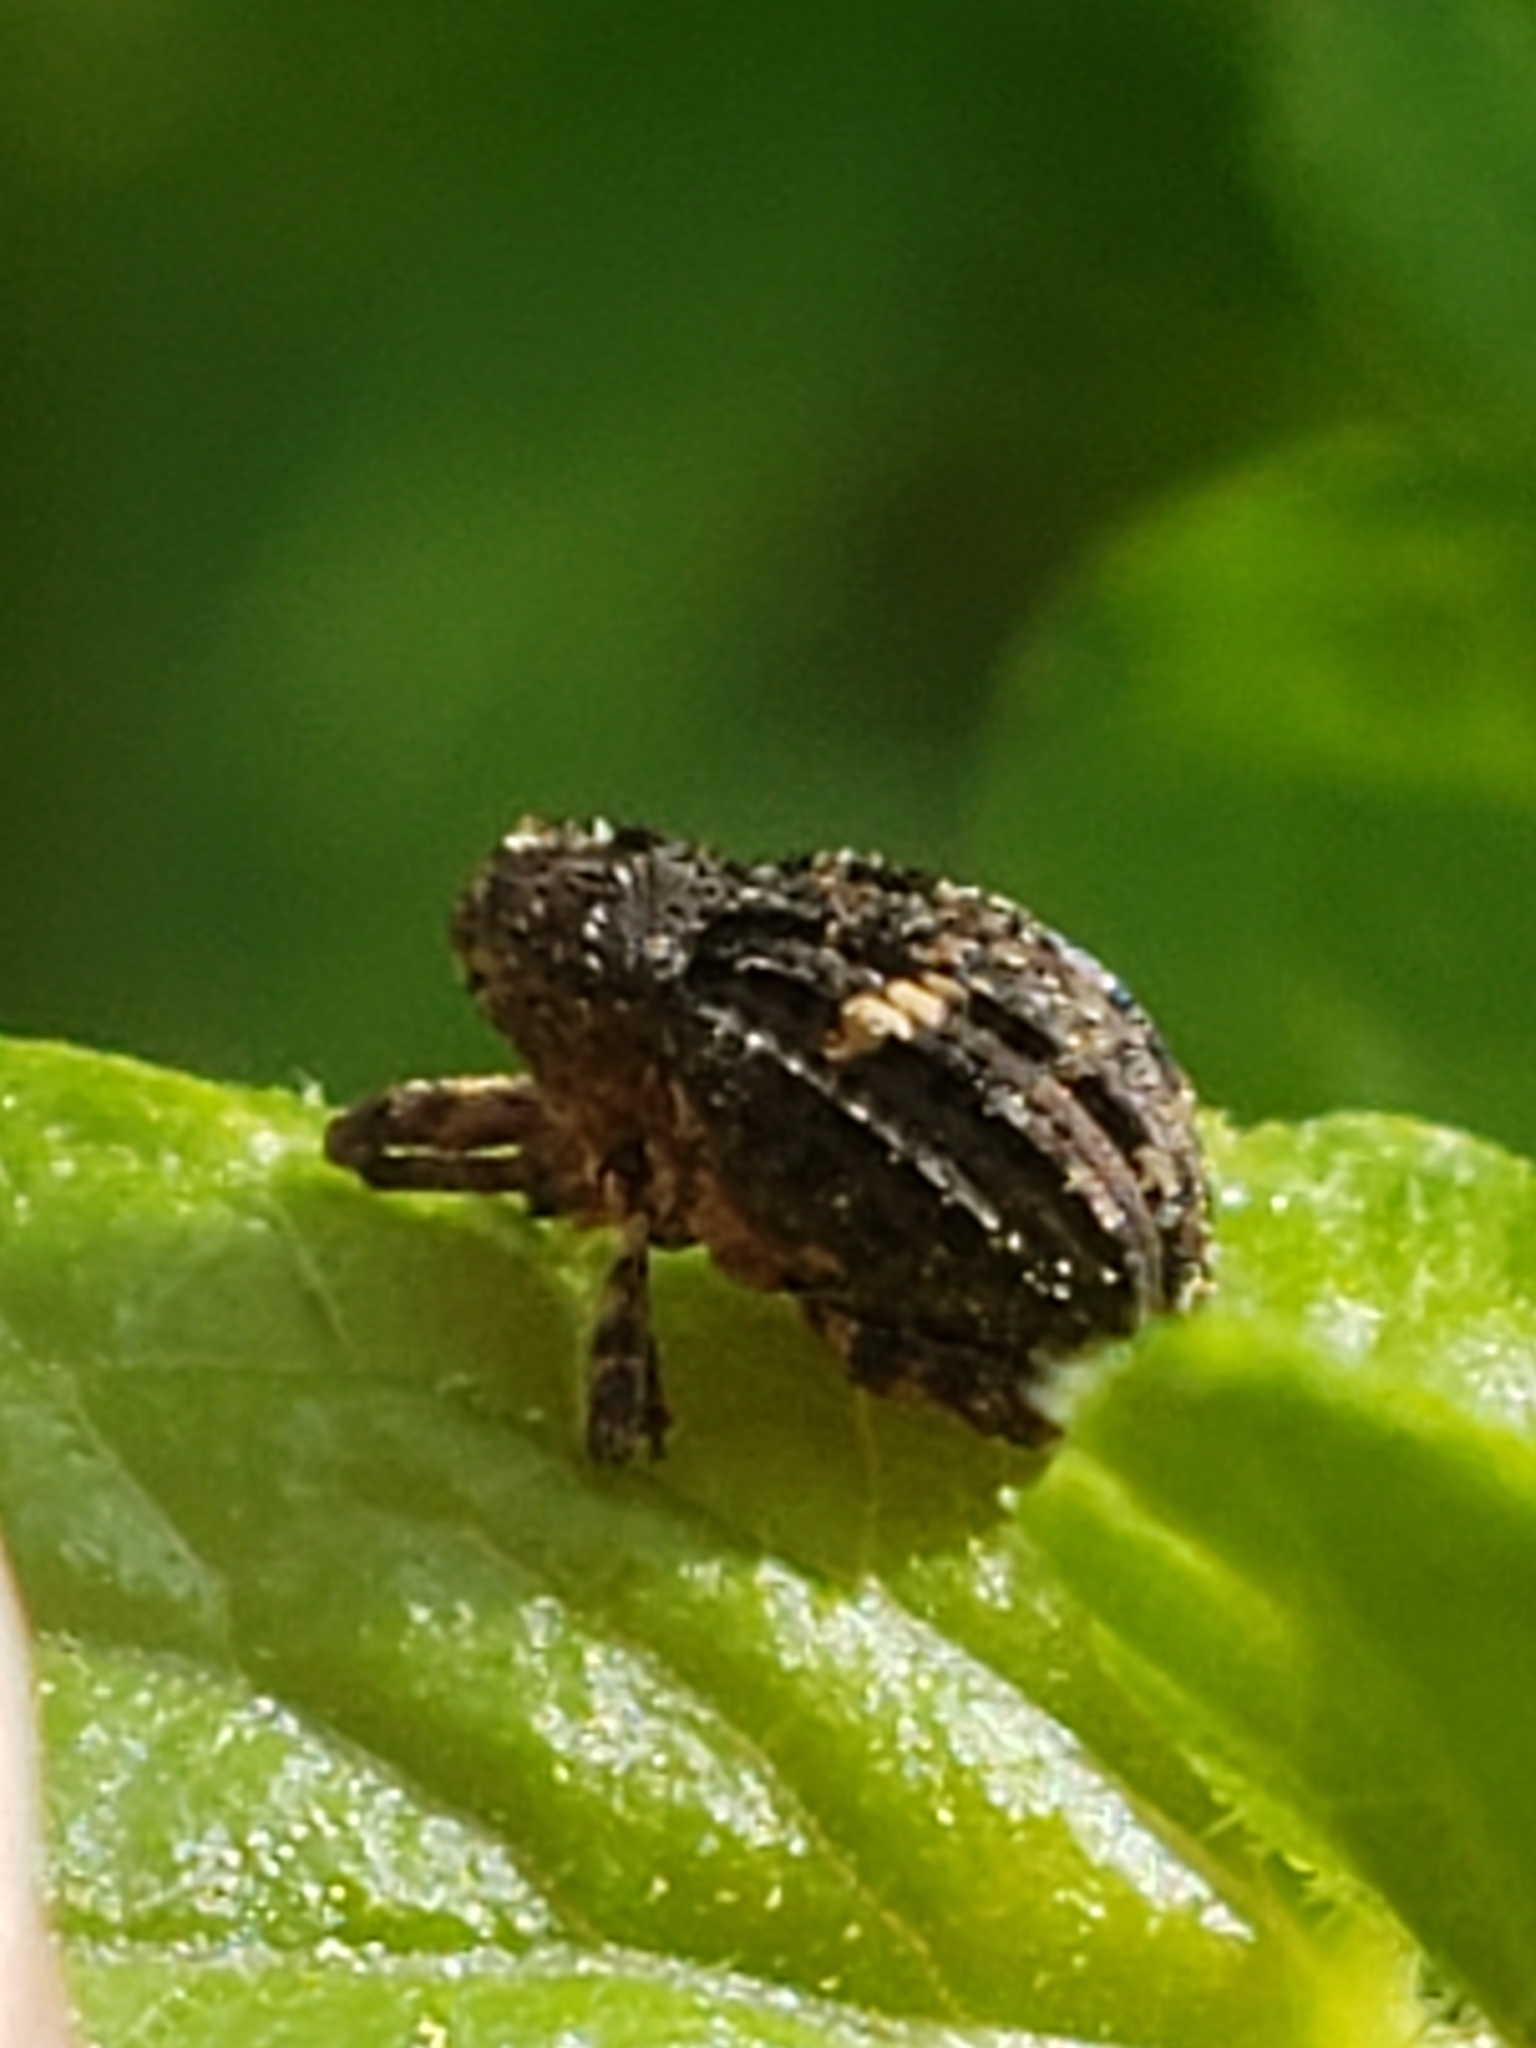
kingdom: Animalia
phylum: Arthropoda
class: Insecta
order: Coleoptera
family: Curculionidae
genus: Eubulus
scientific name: Eubulus bisignatus
